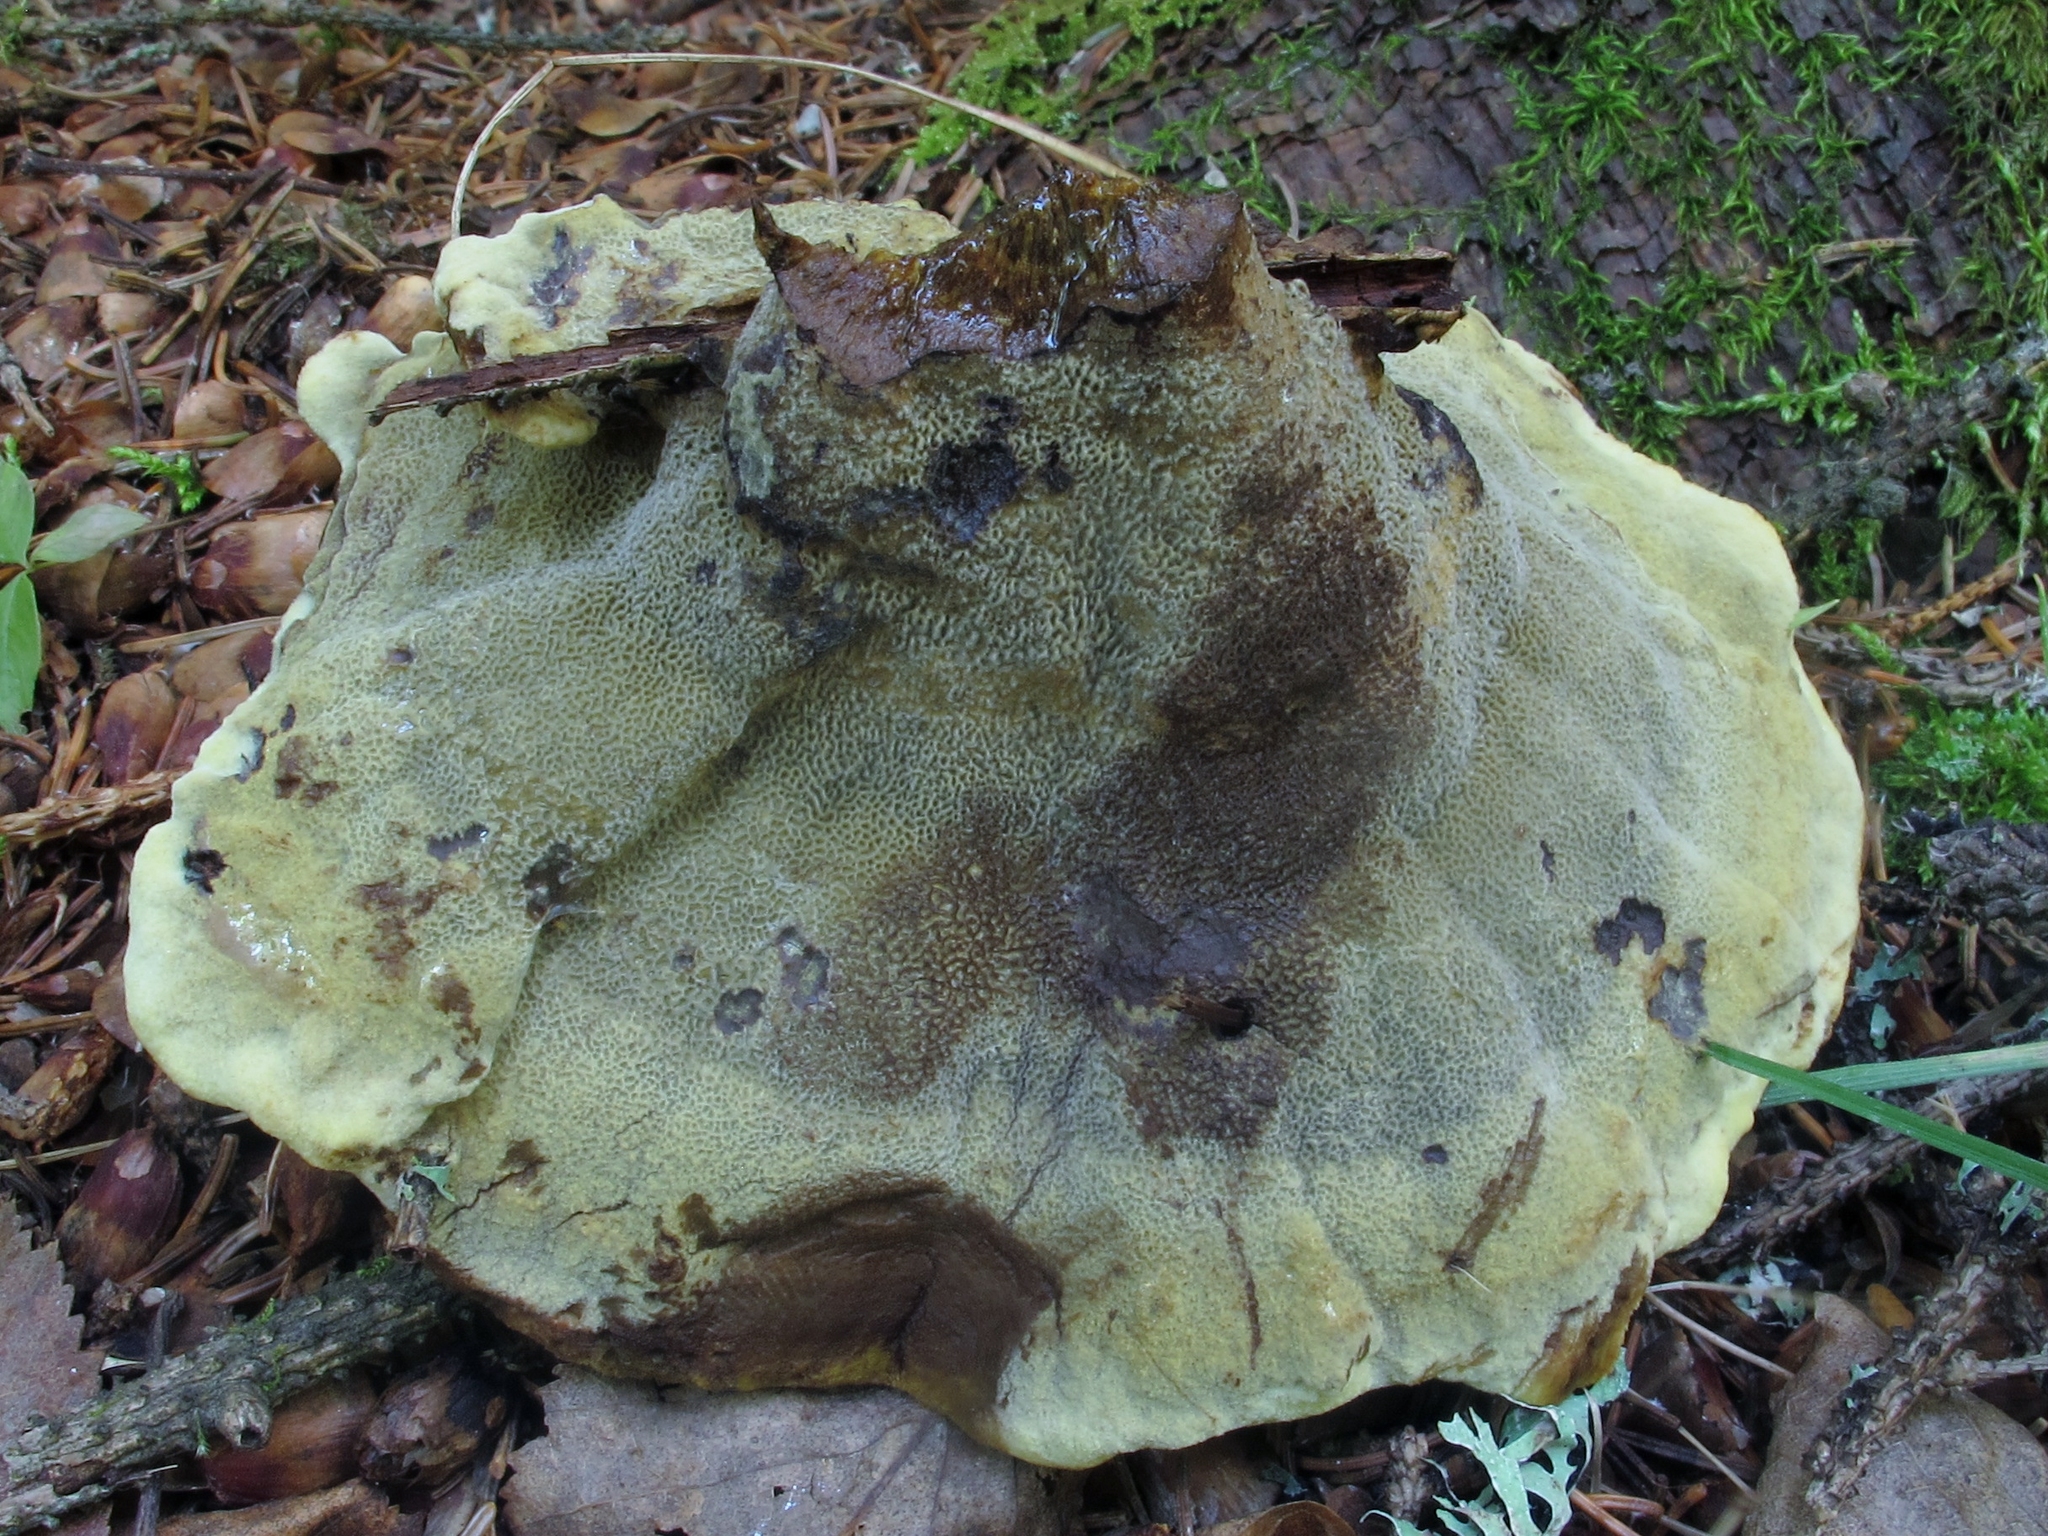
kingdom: Fungi
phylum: Basidiomycota
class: Agaricomycetes
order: Polyporales
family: Laetiporaceae
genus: Phaeolus
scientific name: Phaeolus schweinitzii
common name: Dyer's mazegill
